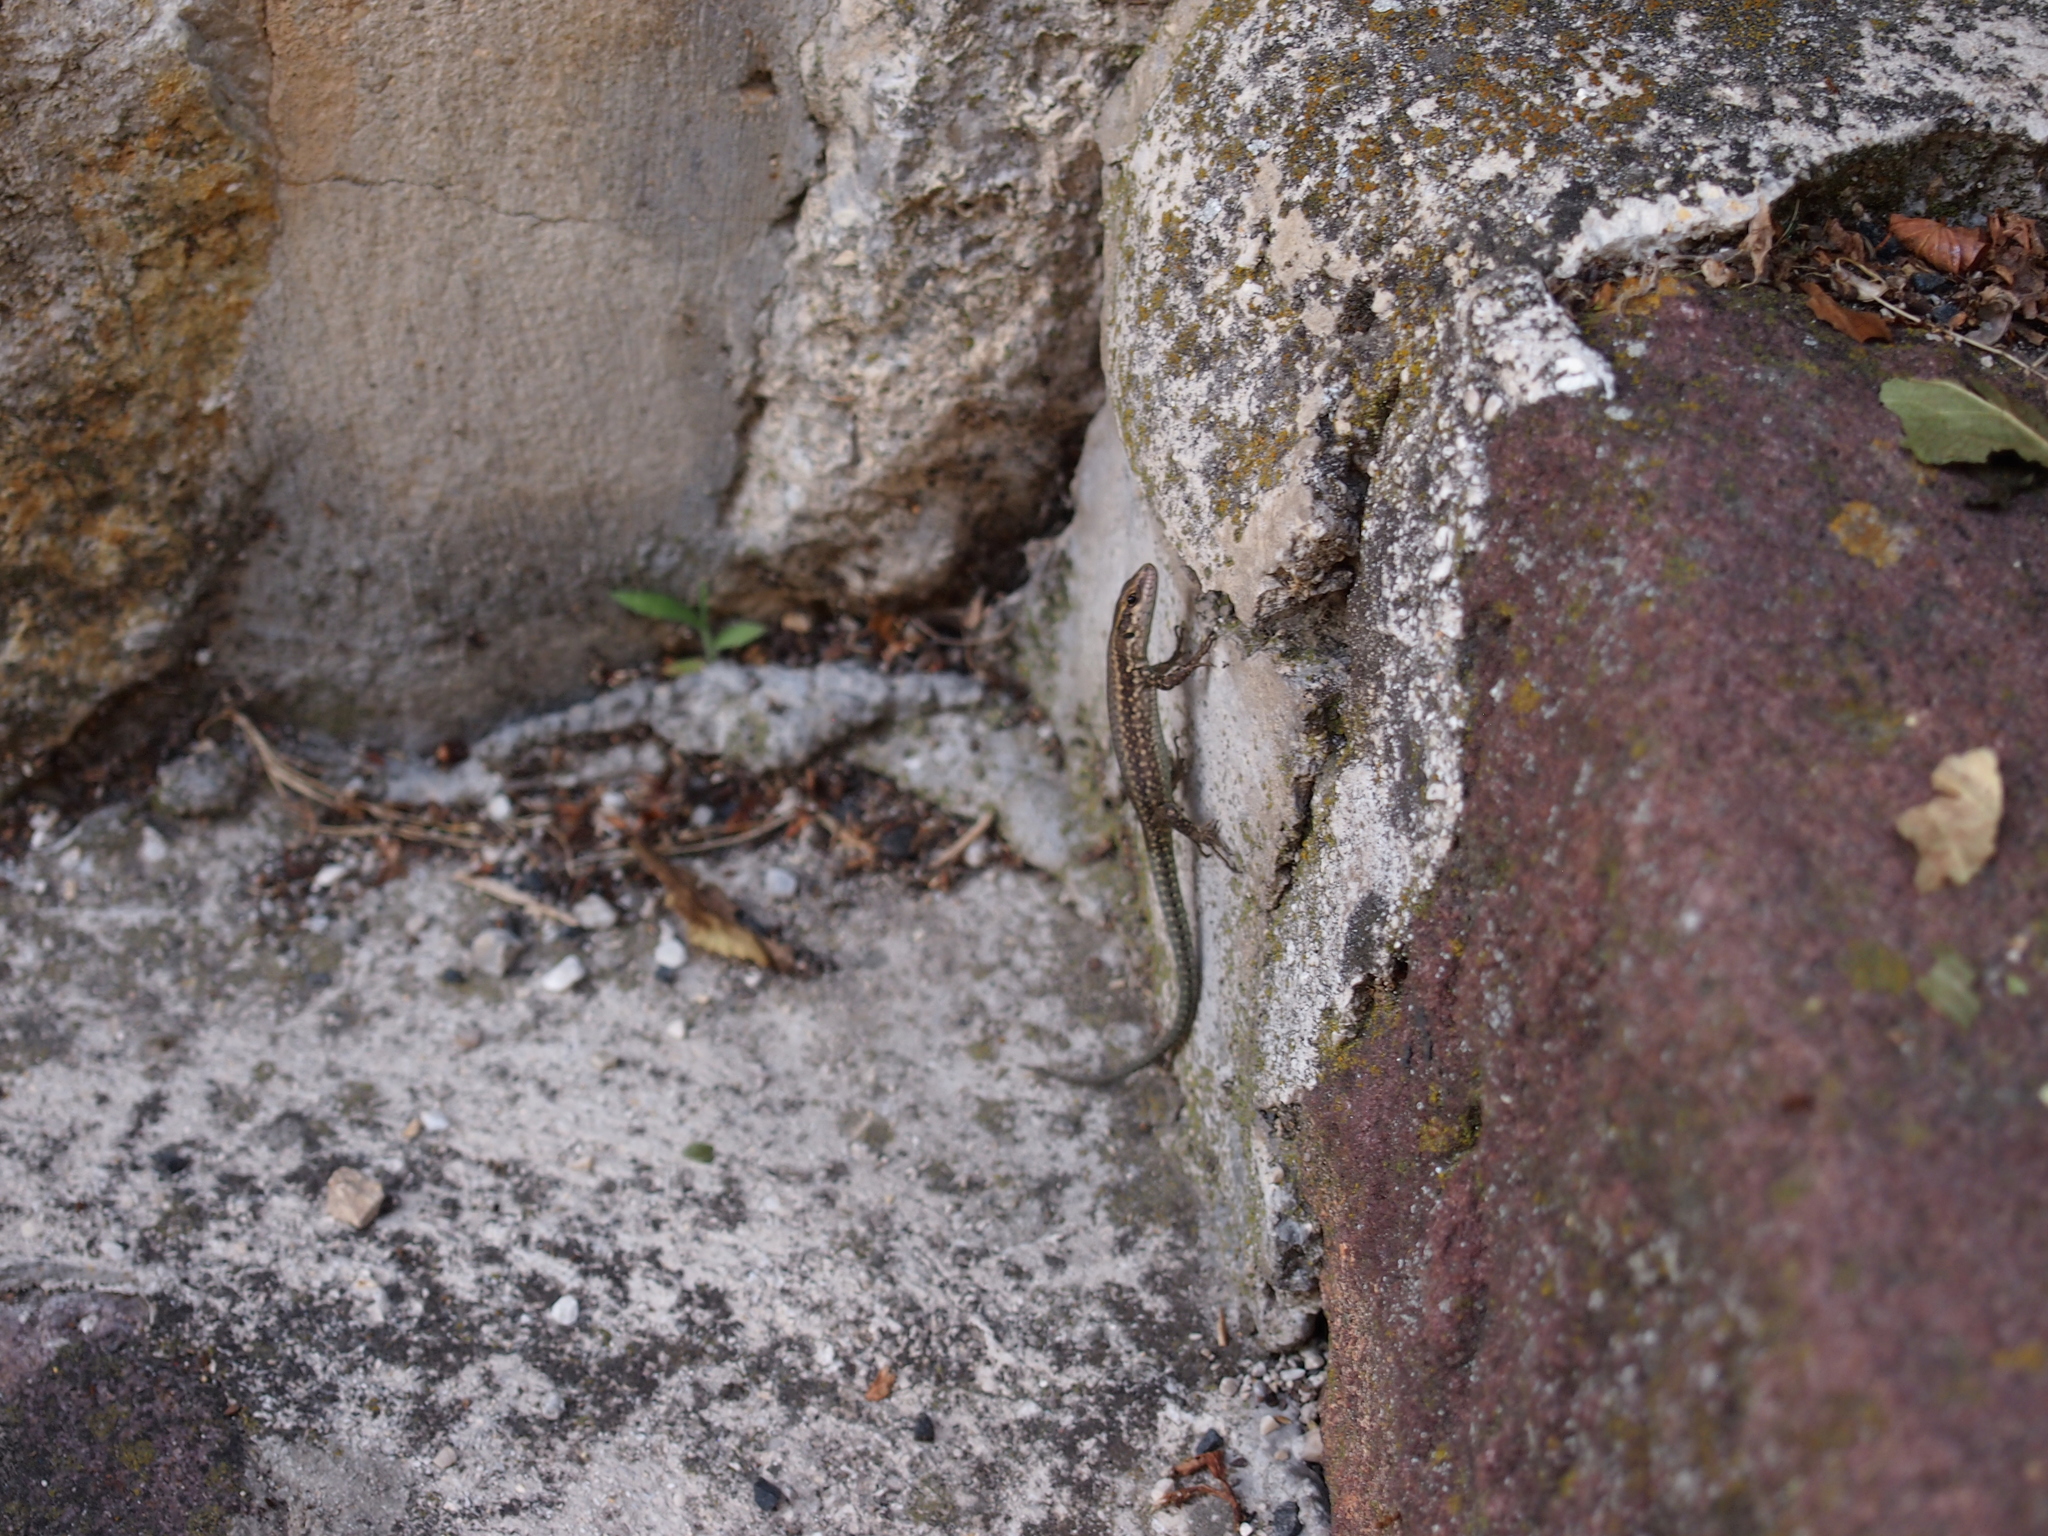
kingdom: Animalia
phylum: Chordata
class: Squamata
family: Lacertidae
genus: Podarcis
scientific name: Podarcis muralis
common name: Common wall lizard
